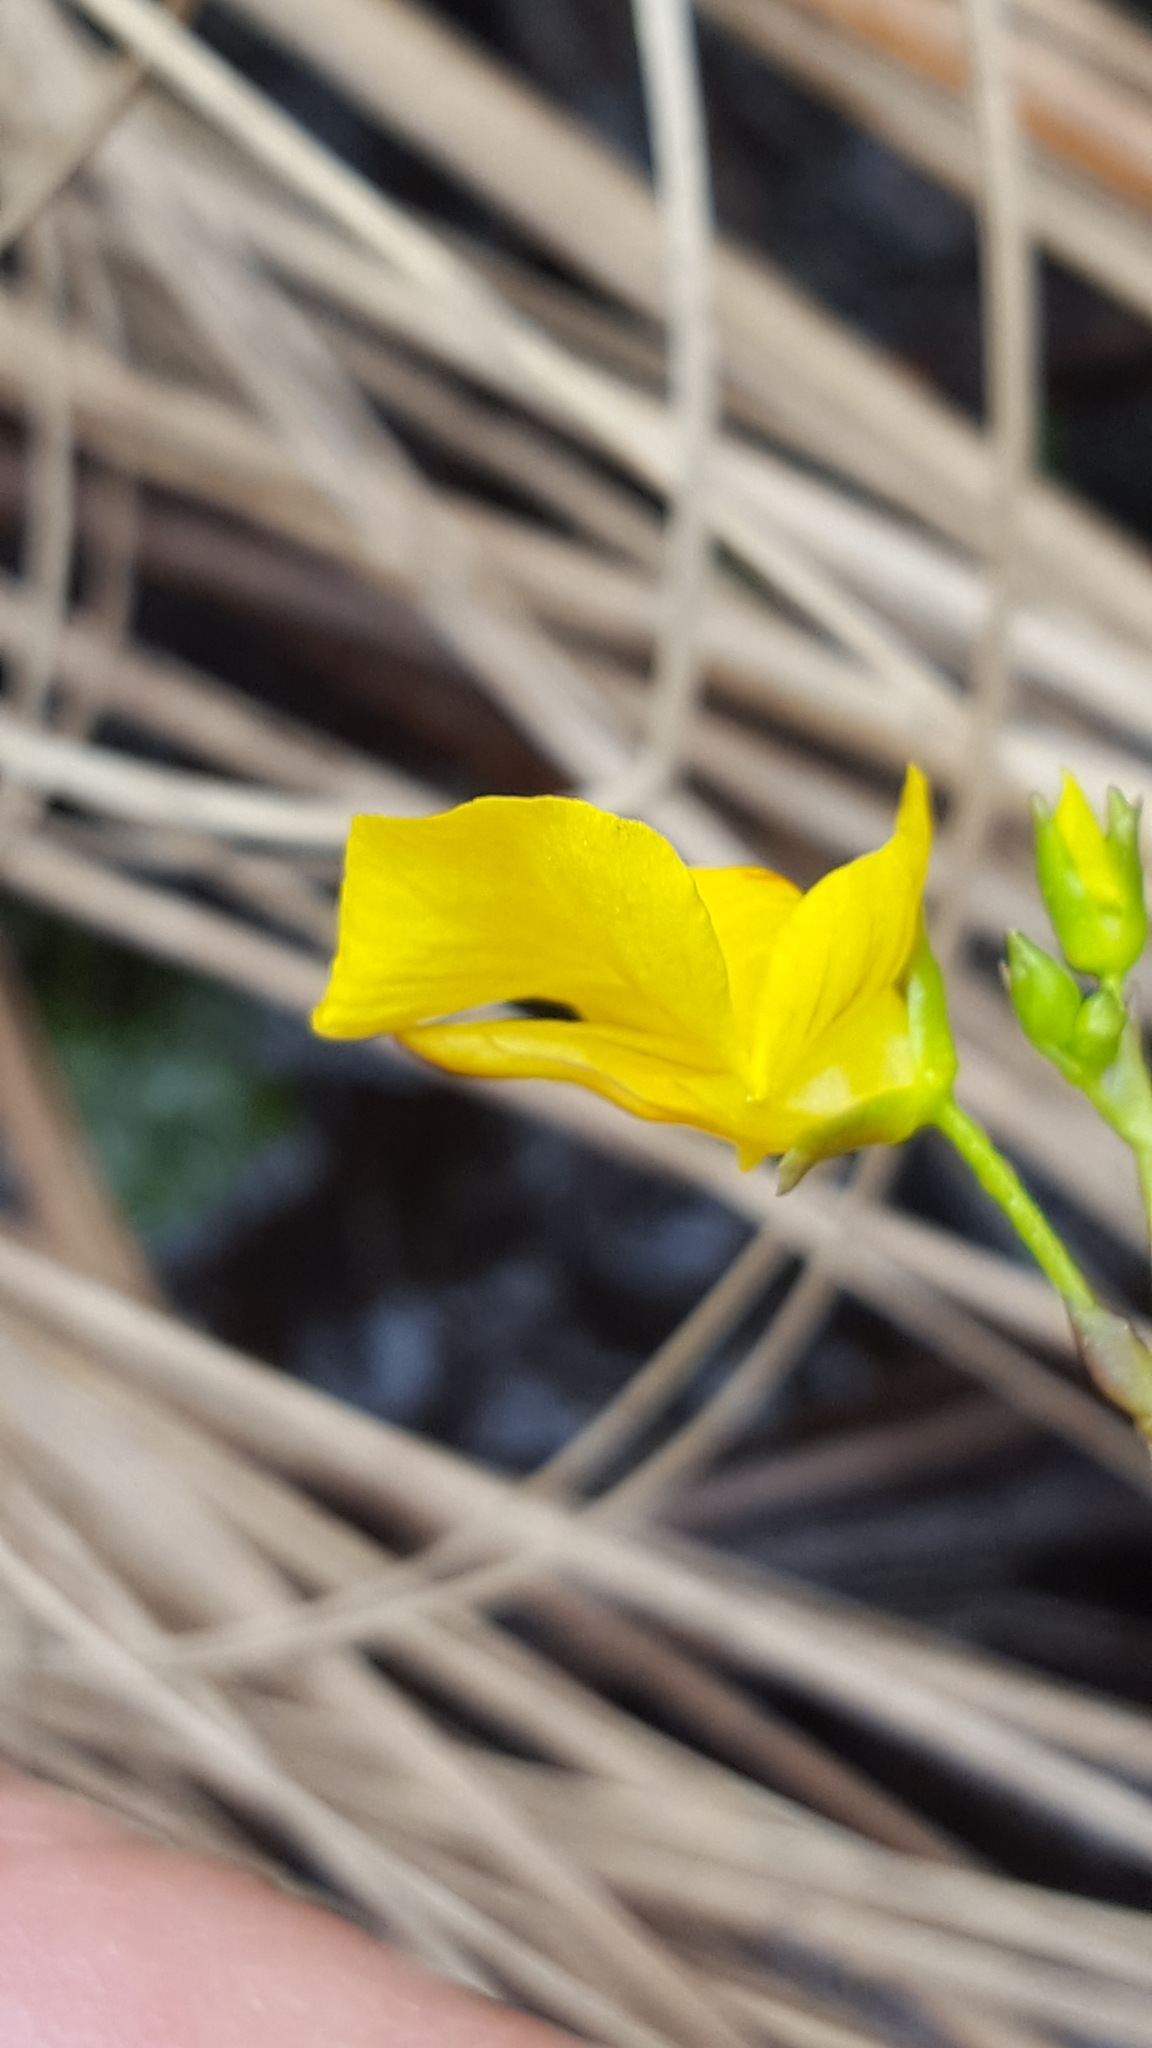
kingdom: Plantae
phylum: Tracheophyta
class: Magnoliopsida
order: Lamiales
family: Lentibulariaceae
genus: Utricularia
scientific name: Utricularia intermedia
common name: Intermediate bladderwort
